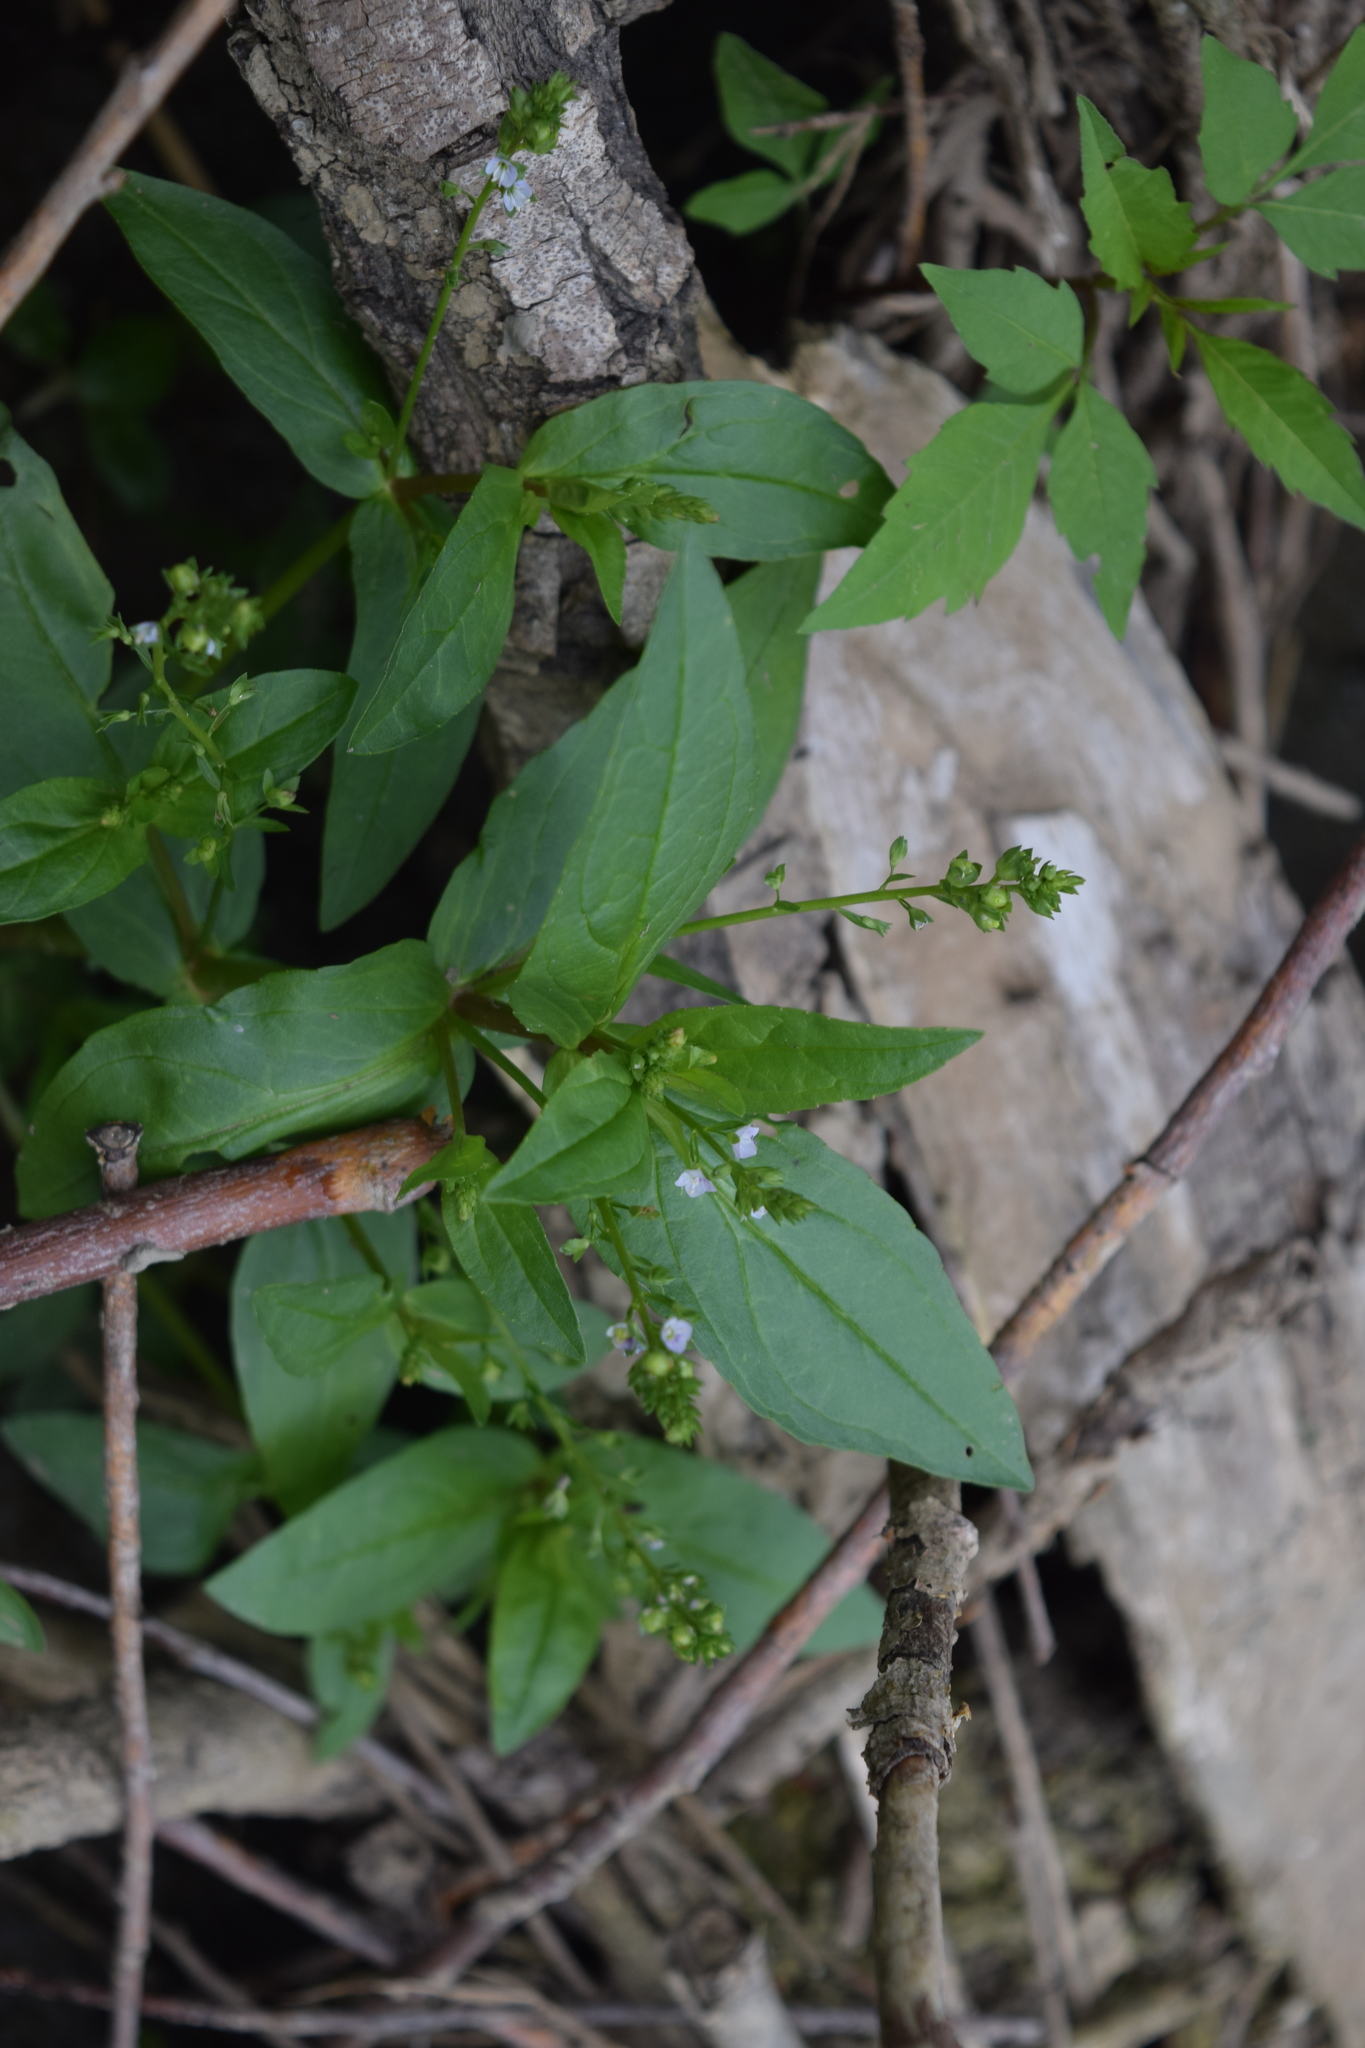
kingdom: Plantae
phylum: Tracheophyta
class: Magnoliopsida
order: Lamiales
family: Plantaginaceae
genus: Veronica
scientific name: Veronica anagallis-aquatica
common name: Water speedwell
